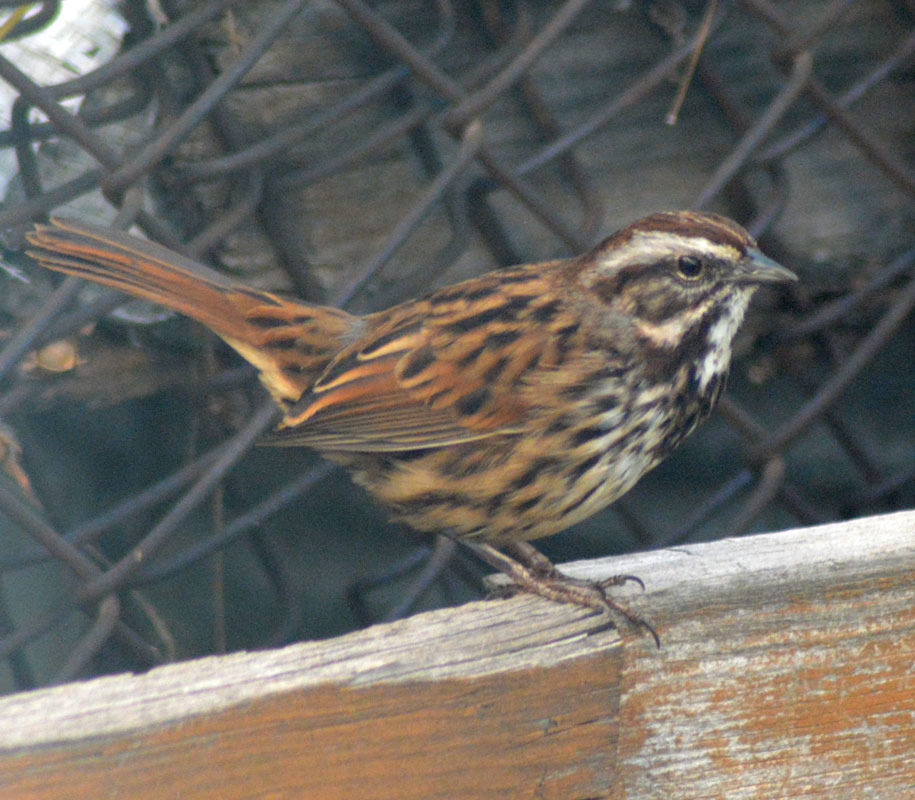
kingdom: Animalia
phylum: Chordata
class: Aves
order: Passeriformes
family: Passerellidae
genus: Melospiza
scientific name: Melospiza melodia
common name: Song sparrow
